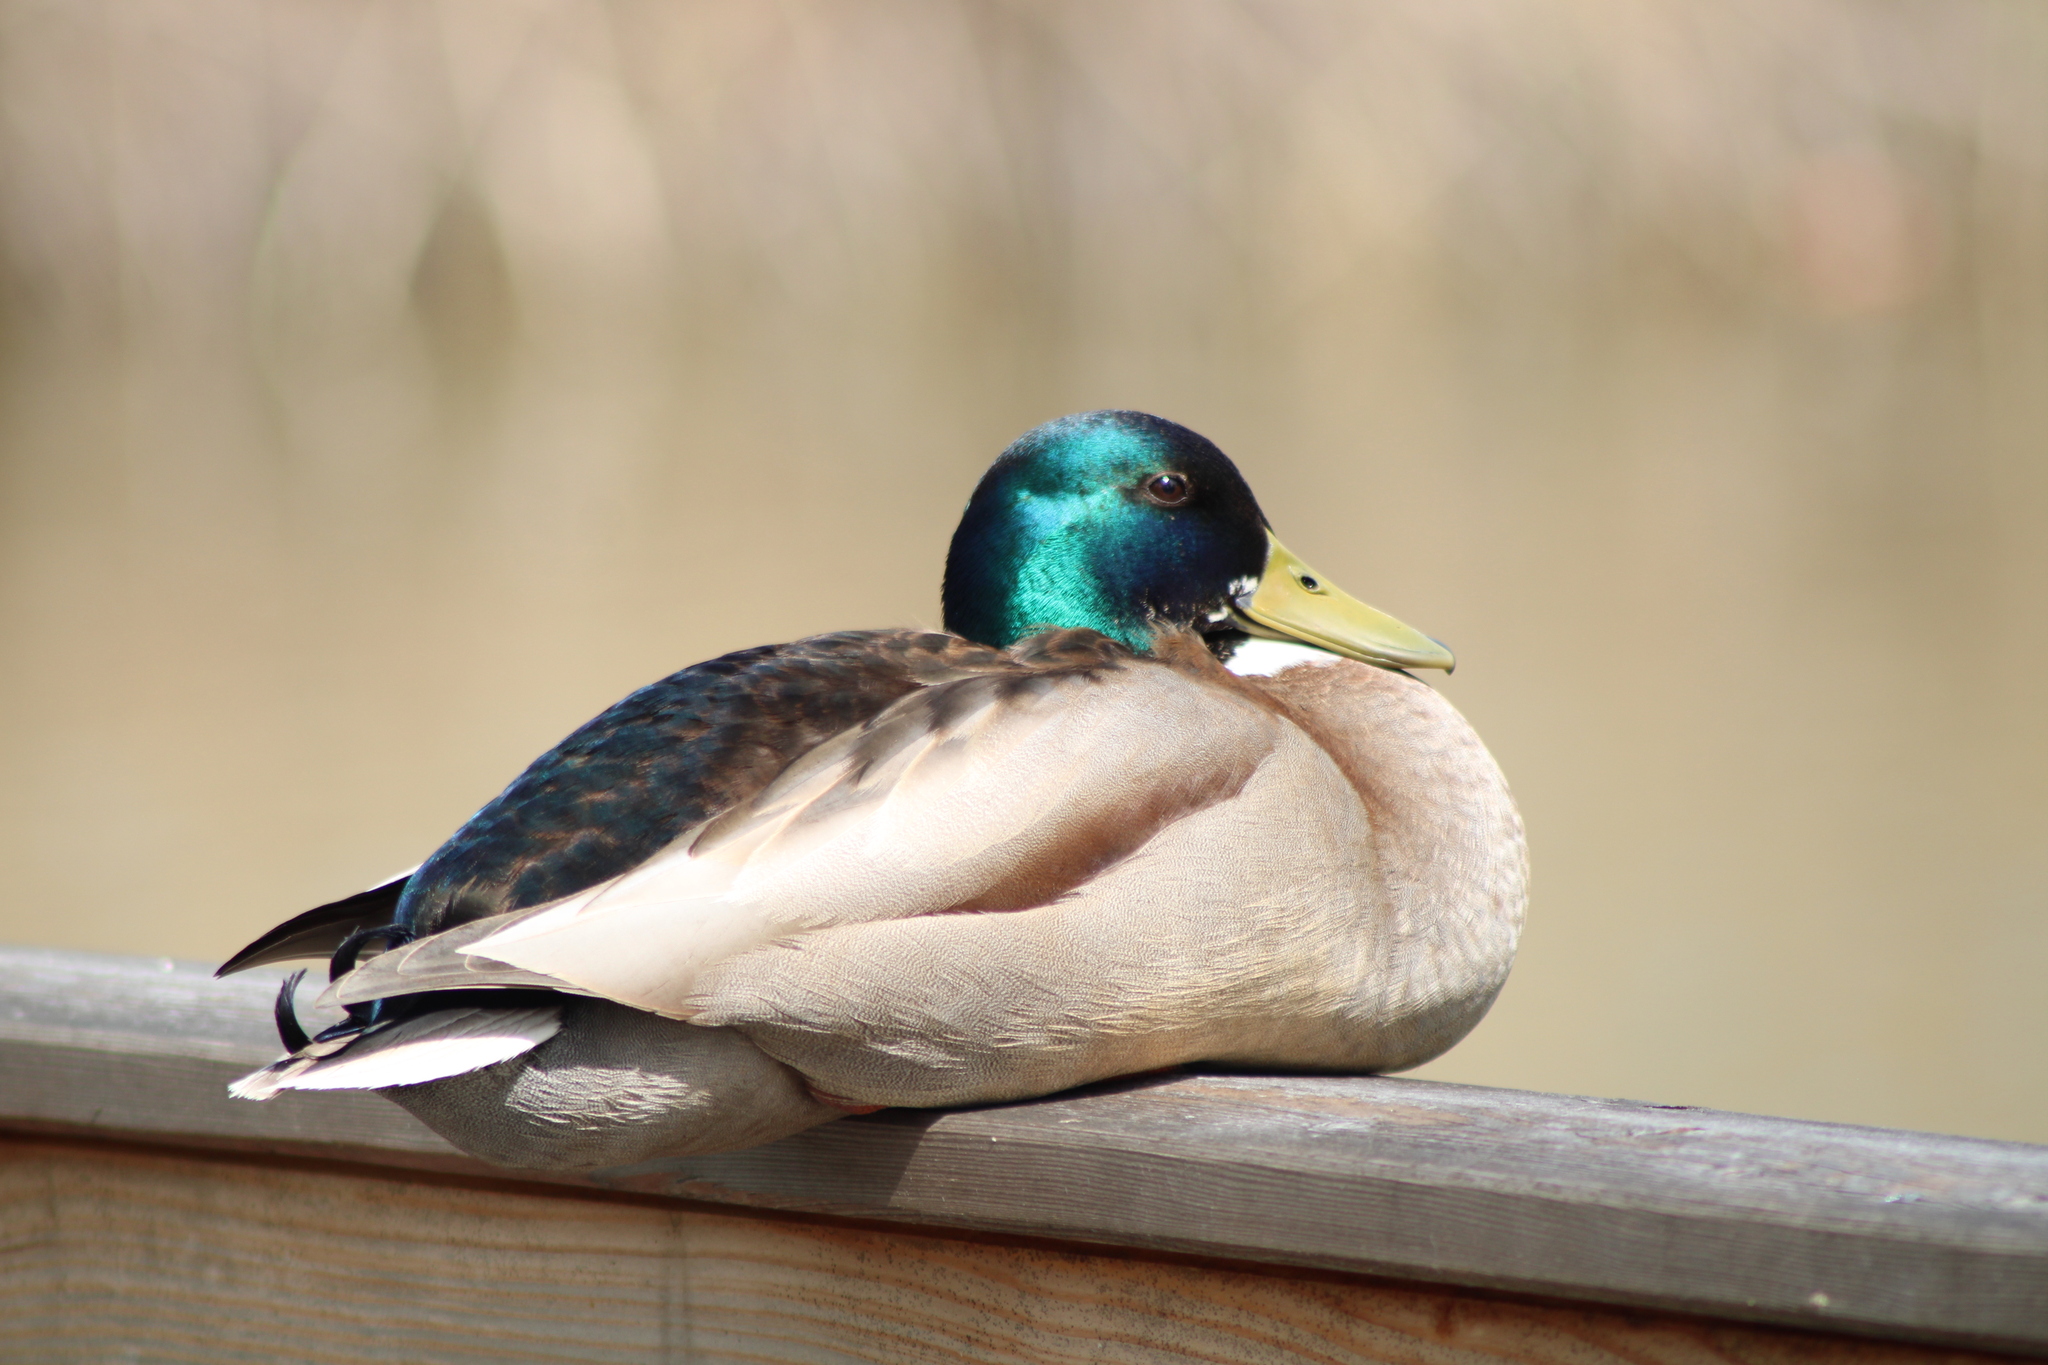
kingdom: Animalia
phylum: Chordata
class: Aves
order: Anseriformes
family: Anatidae
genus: Anas
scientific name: Anas platyrhynchos
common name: Mallard
